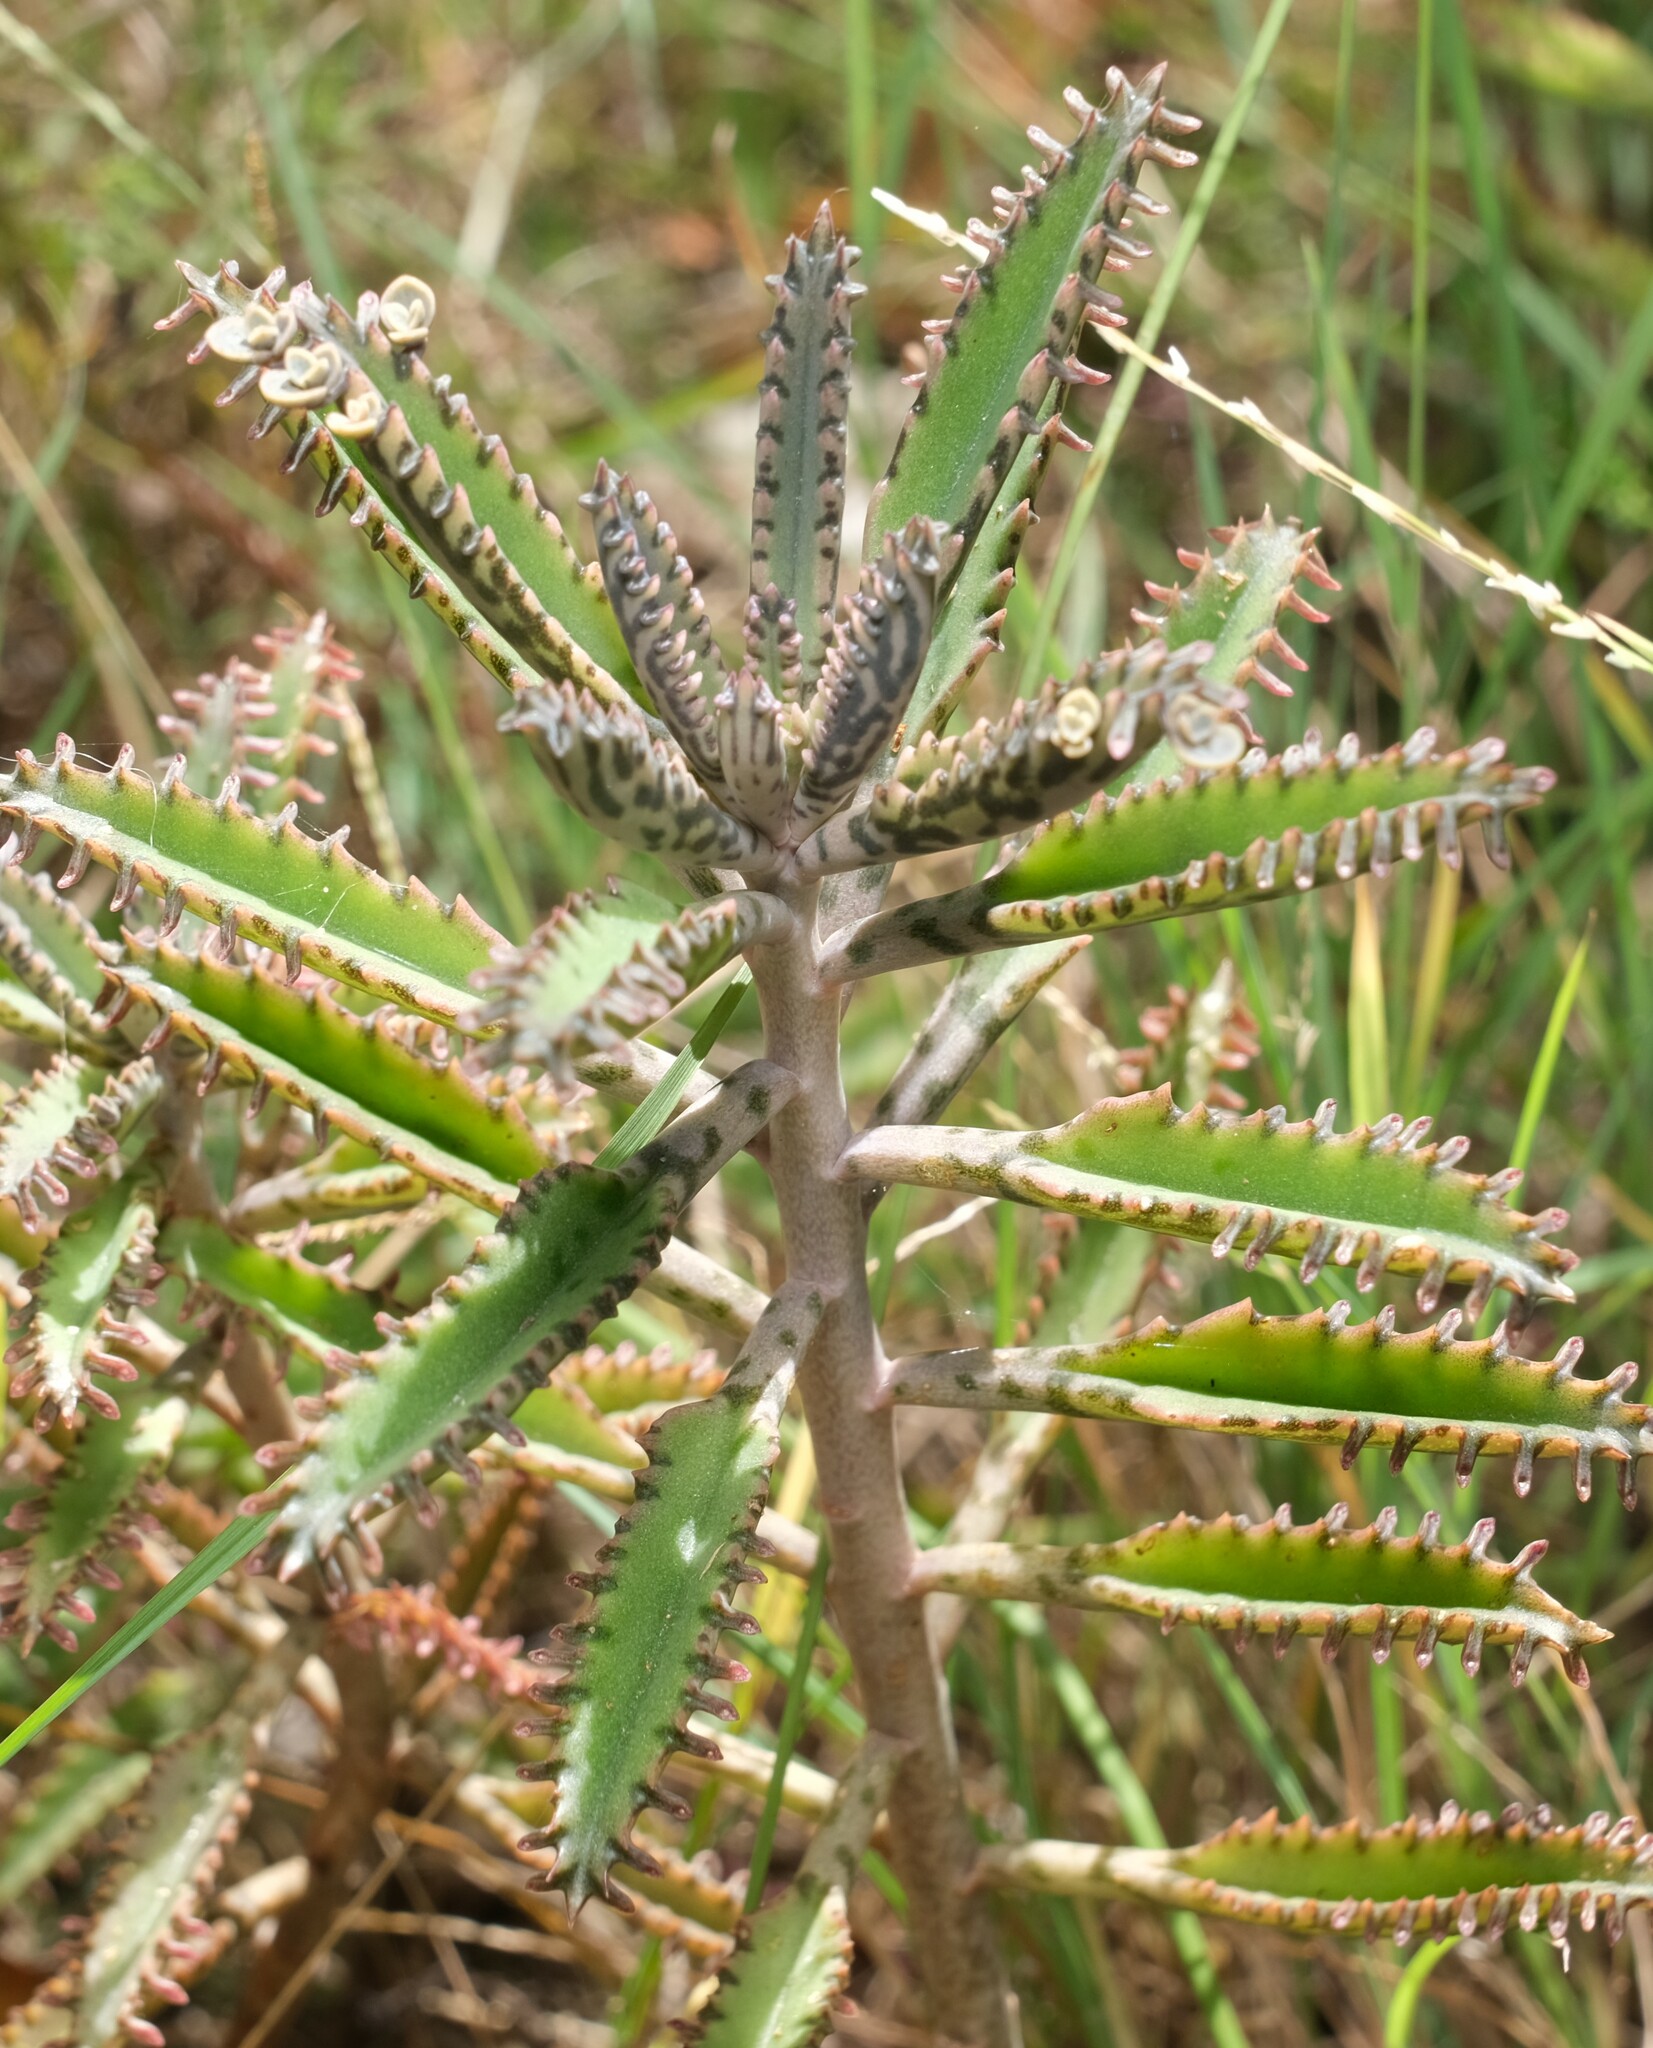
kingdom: Plantae
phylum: Tracheophyta
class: Magnoliopsida
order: Saxifragales
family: Crassulaceae
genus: Kalanchoe
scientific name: Kalanchoe houghtonii
